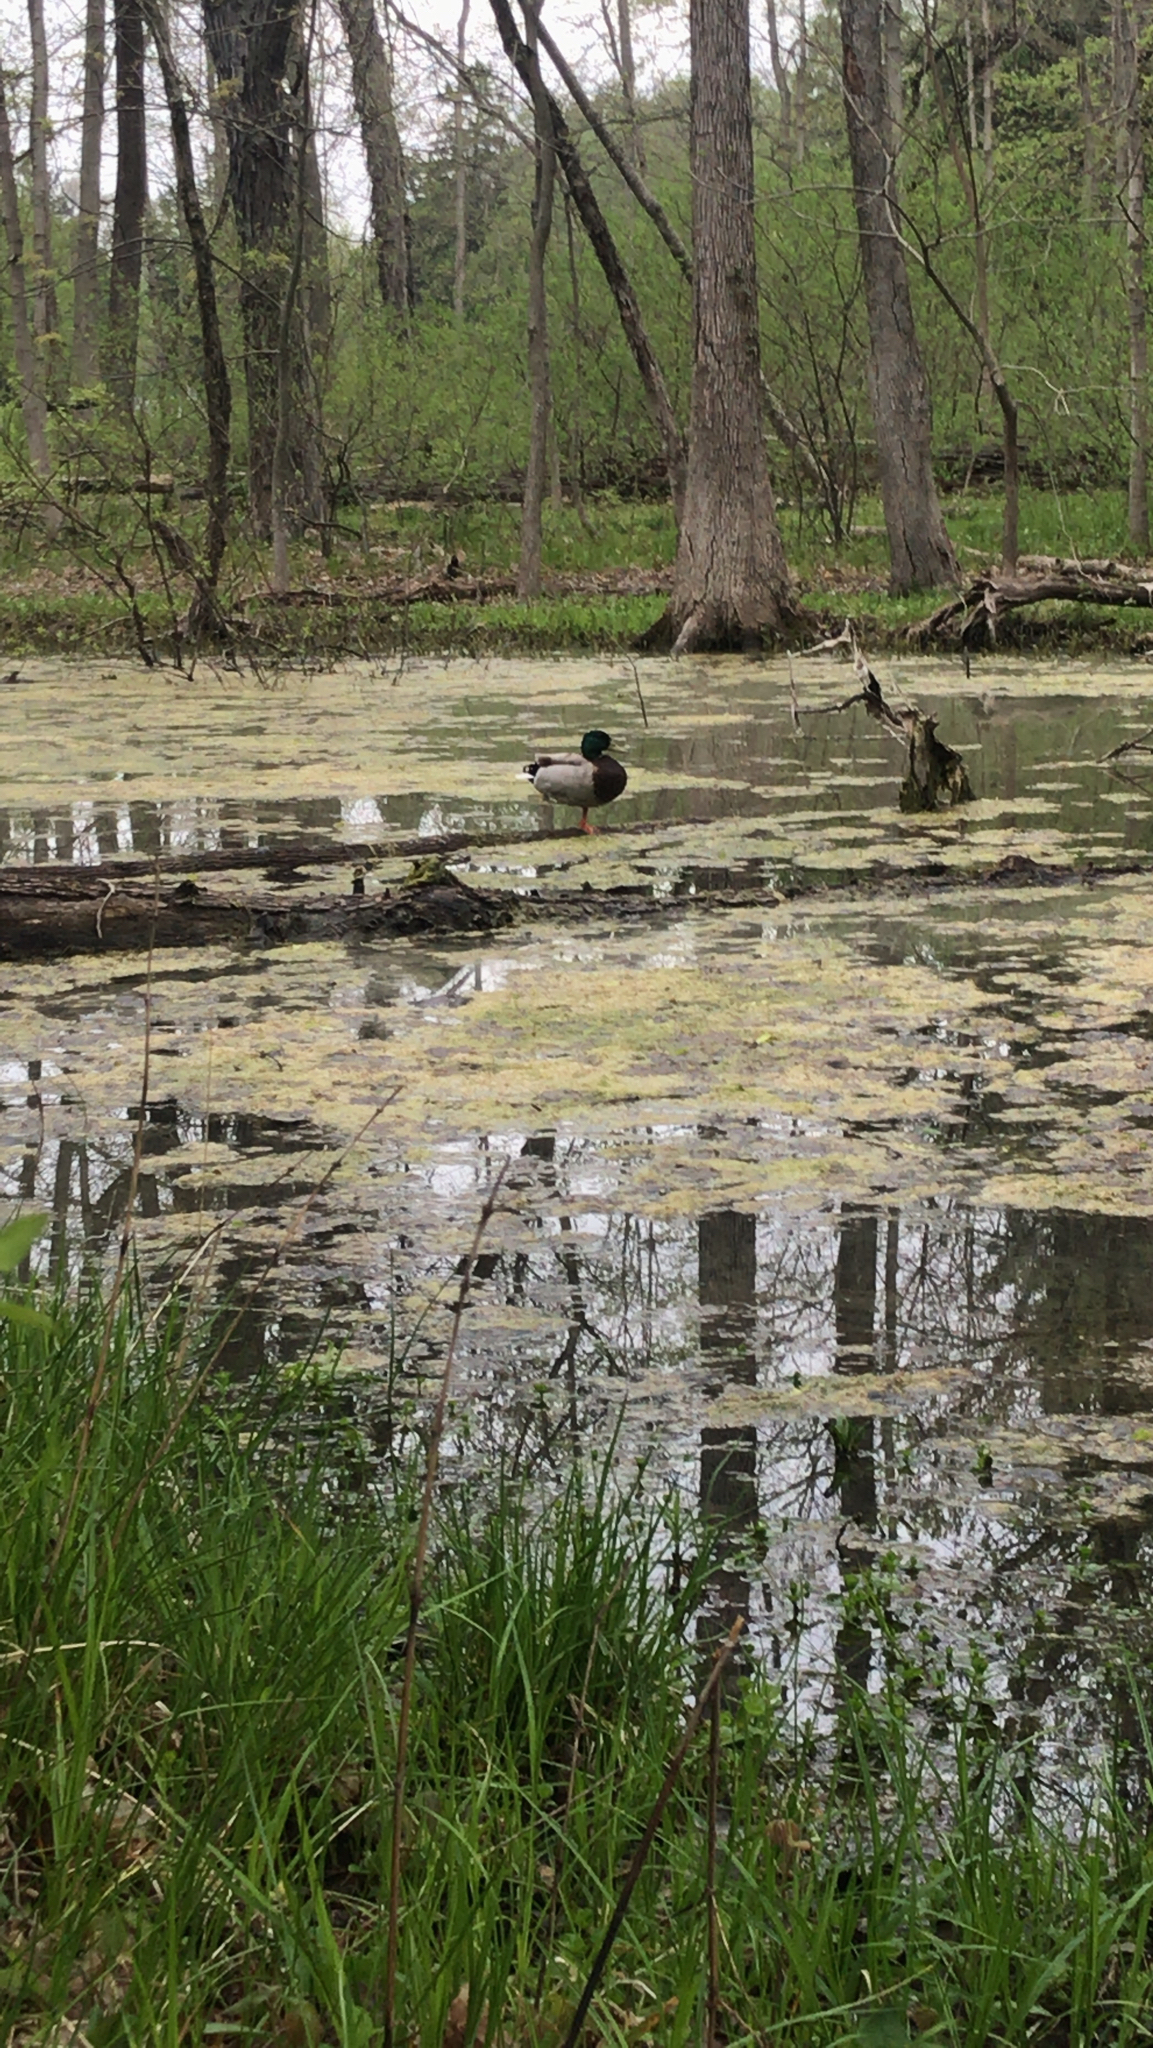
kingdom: Animalia
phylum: Chordata
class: Aves
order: Anseriformes
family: Anatidae
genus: Anas
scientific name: Anas platyrhynchos
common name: Mallard
